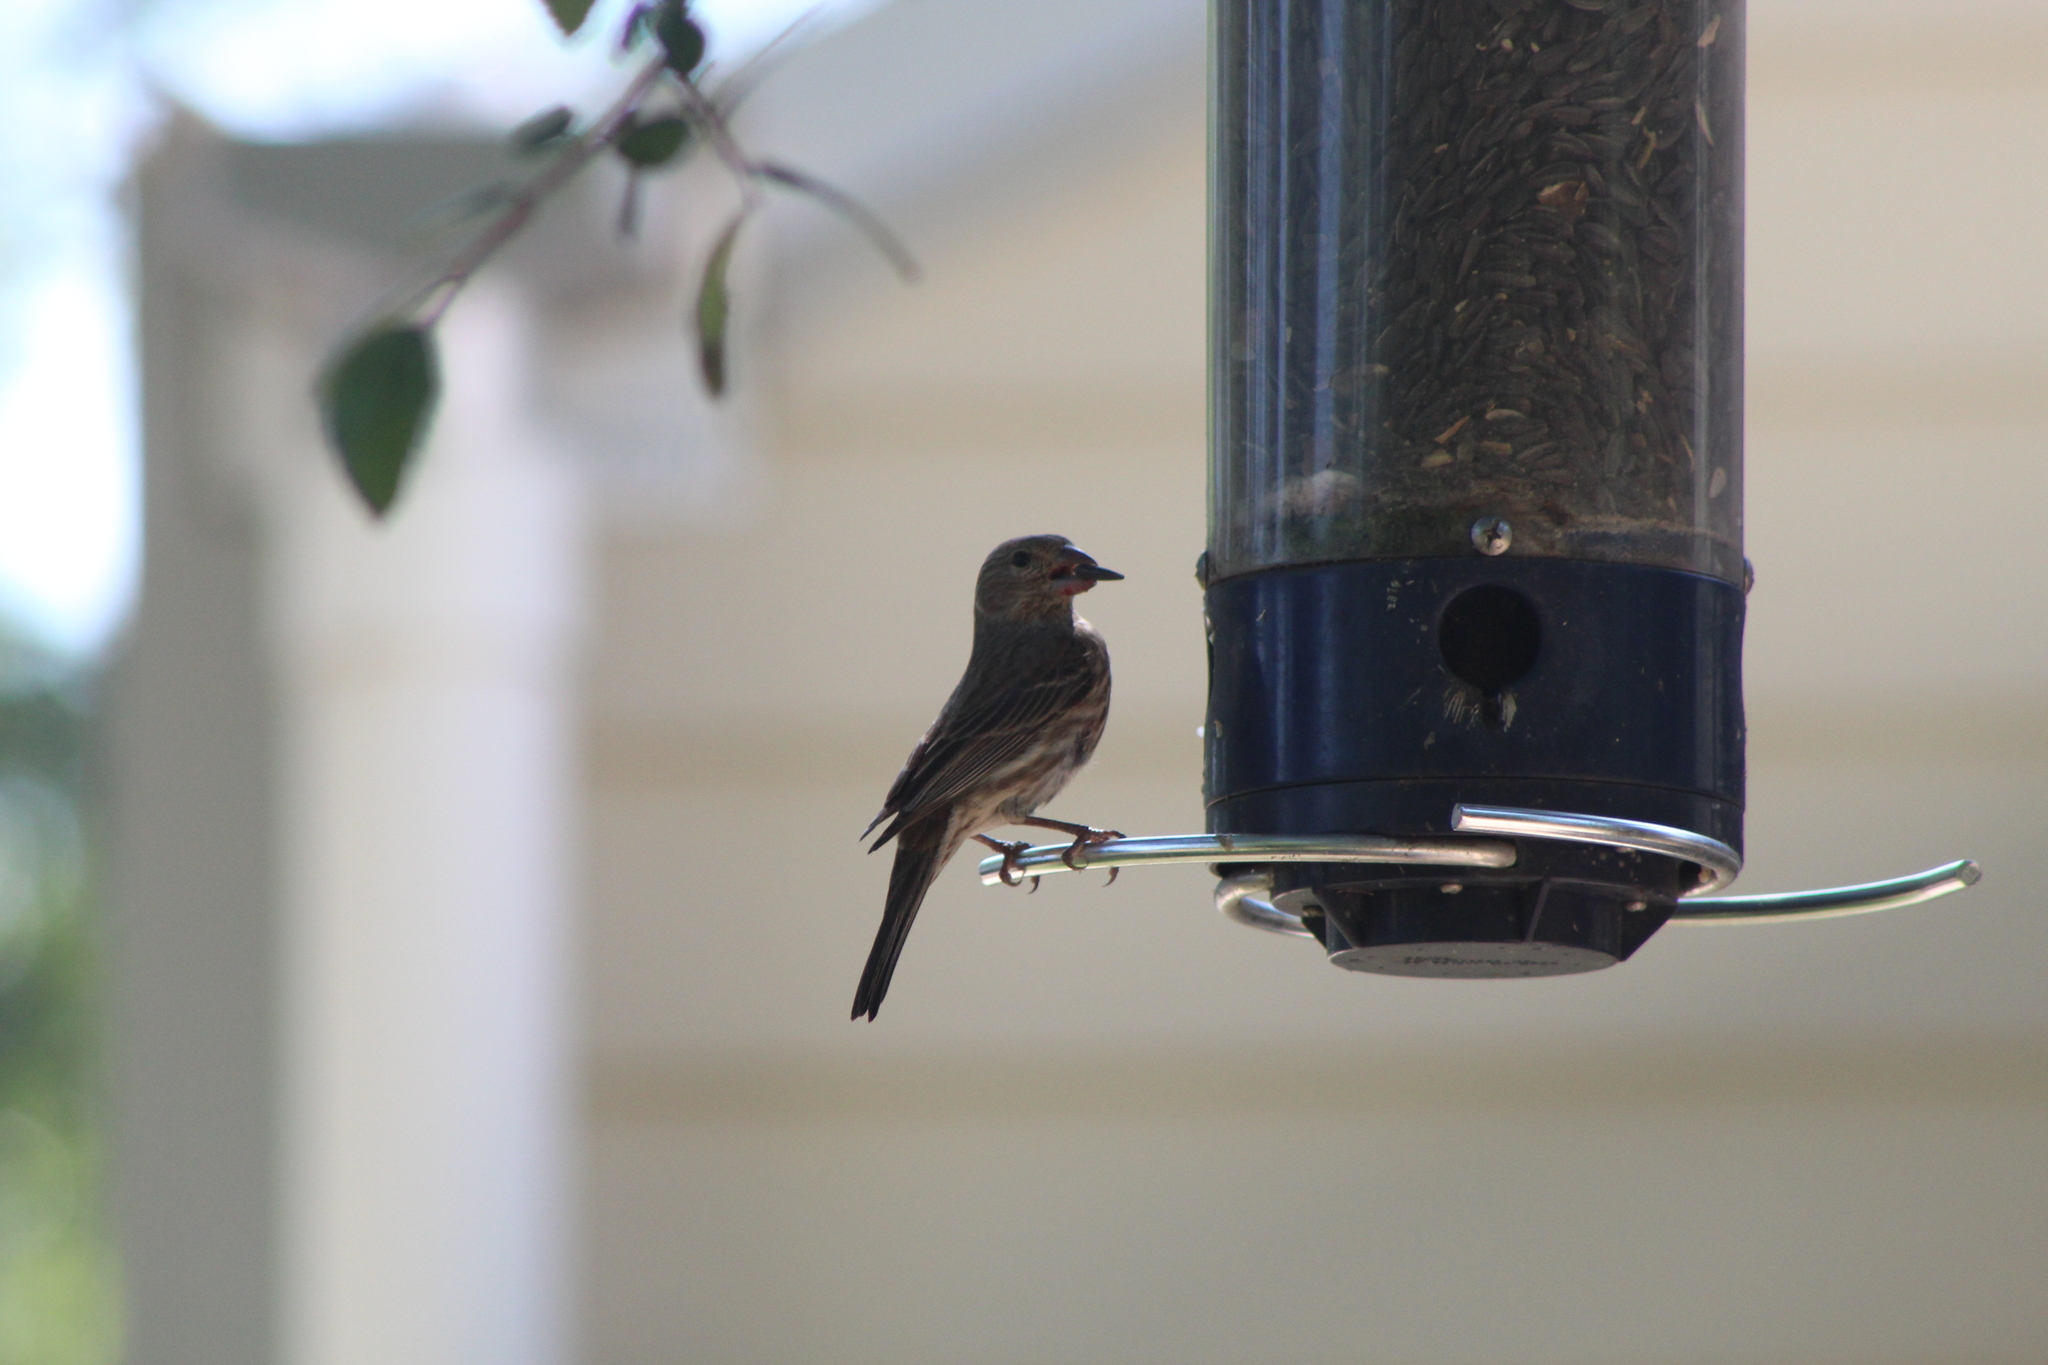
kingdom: Animalia
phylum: Chordata
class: Aves
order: Passeriformes
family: Fringillidae
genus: Haemorhous
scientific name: Haemorhous mexicanus
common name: House finch
